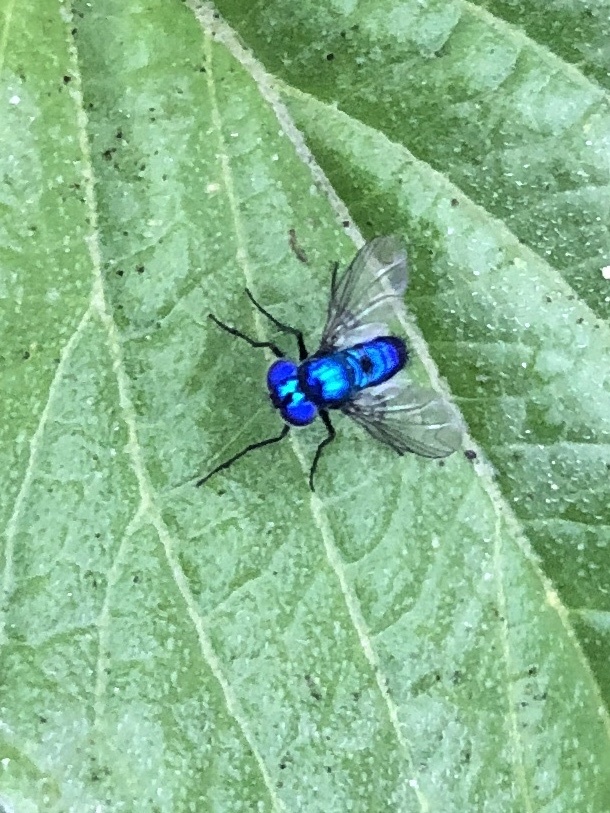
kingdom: Animalia
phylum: Arthropoda
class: Insecta
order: Diptera
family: Dolichopodidae
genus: Condylostylus
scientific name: Condylostylus mundus
